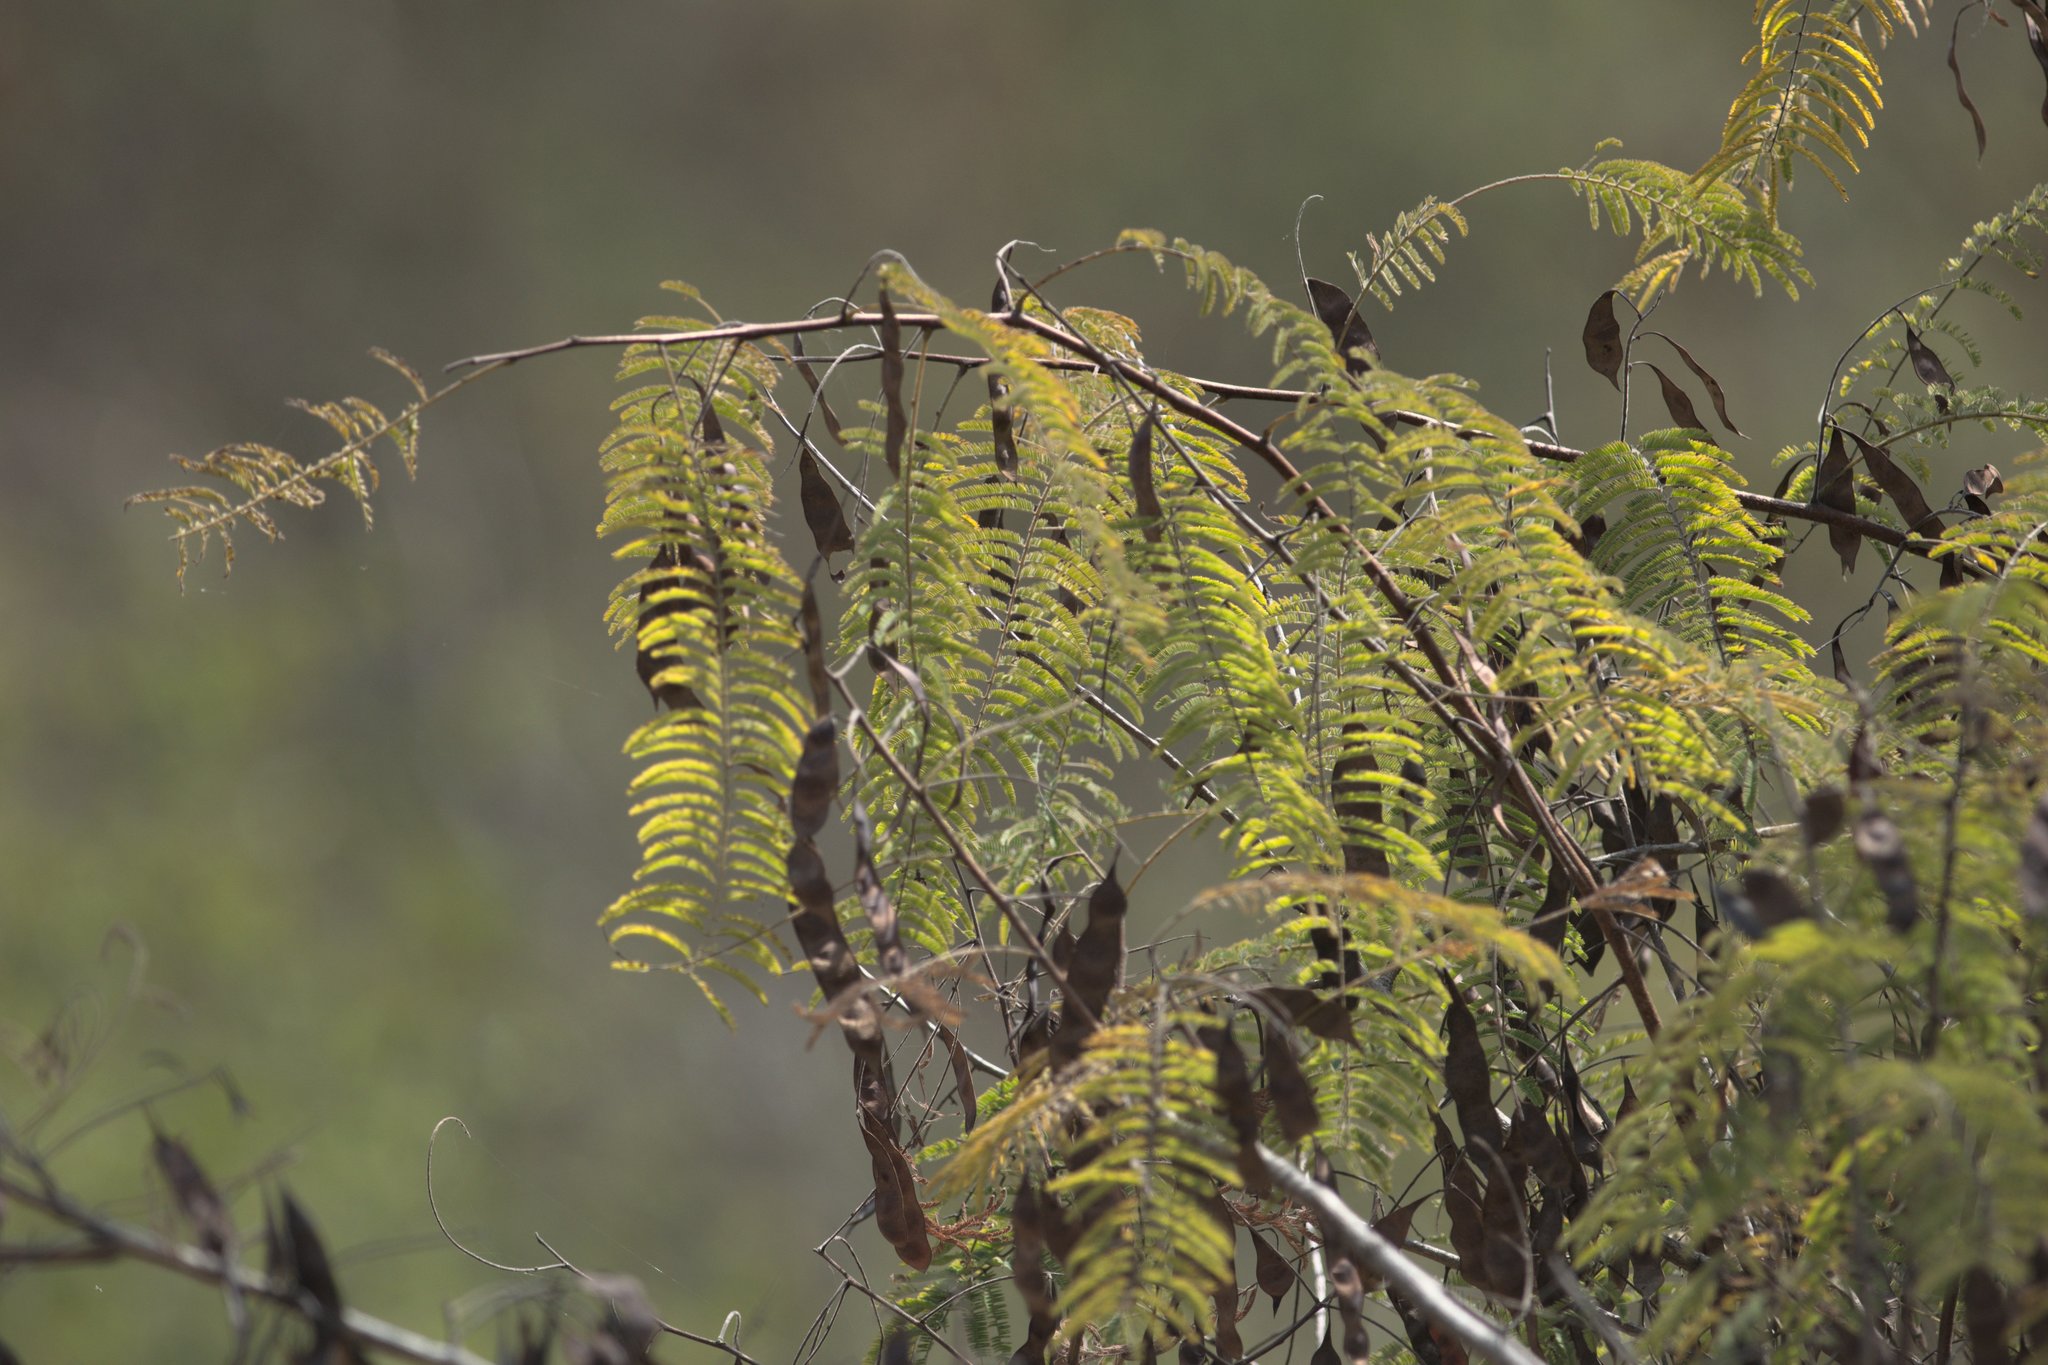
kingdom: Plantae
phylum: Tracheophyta
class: Magnoliopsida
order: Fabales
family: Fabaceae
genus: Senegalia
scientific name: Senegalia catechu
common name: Black cutch
